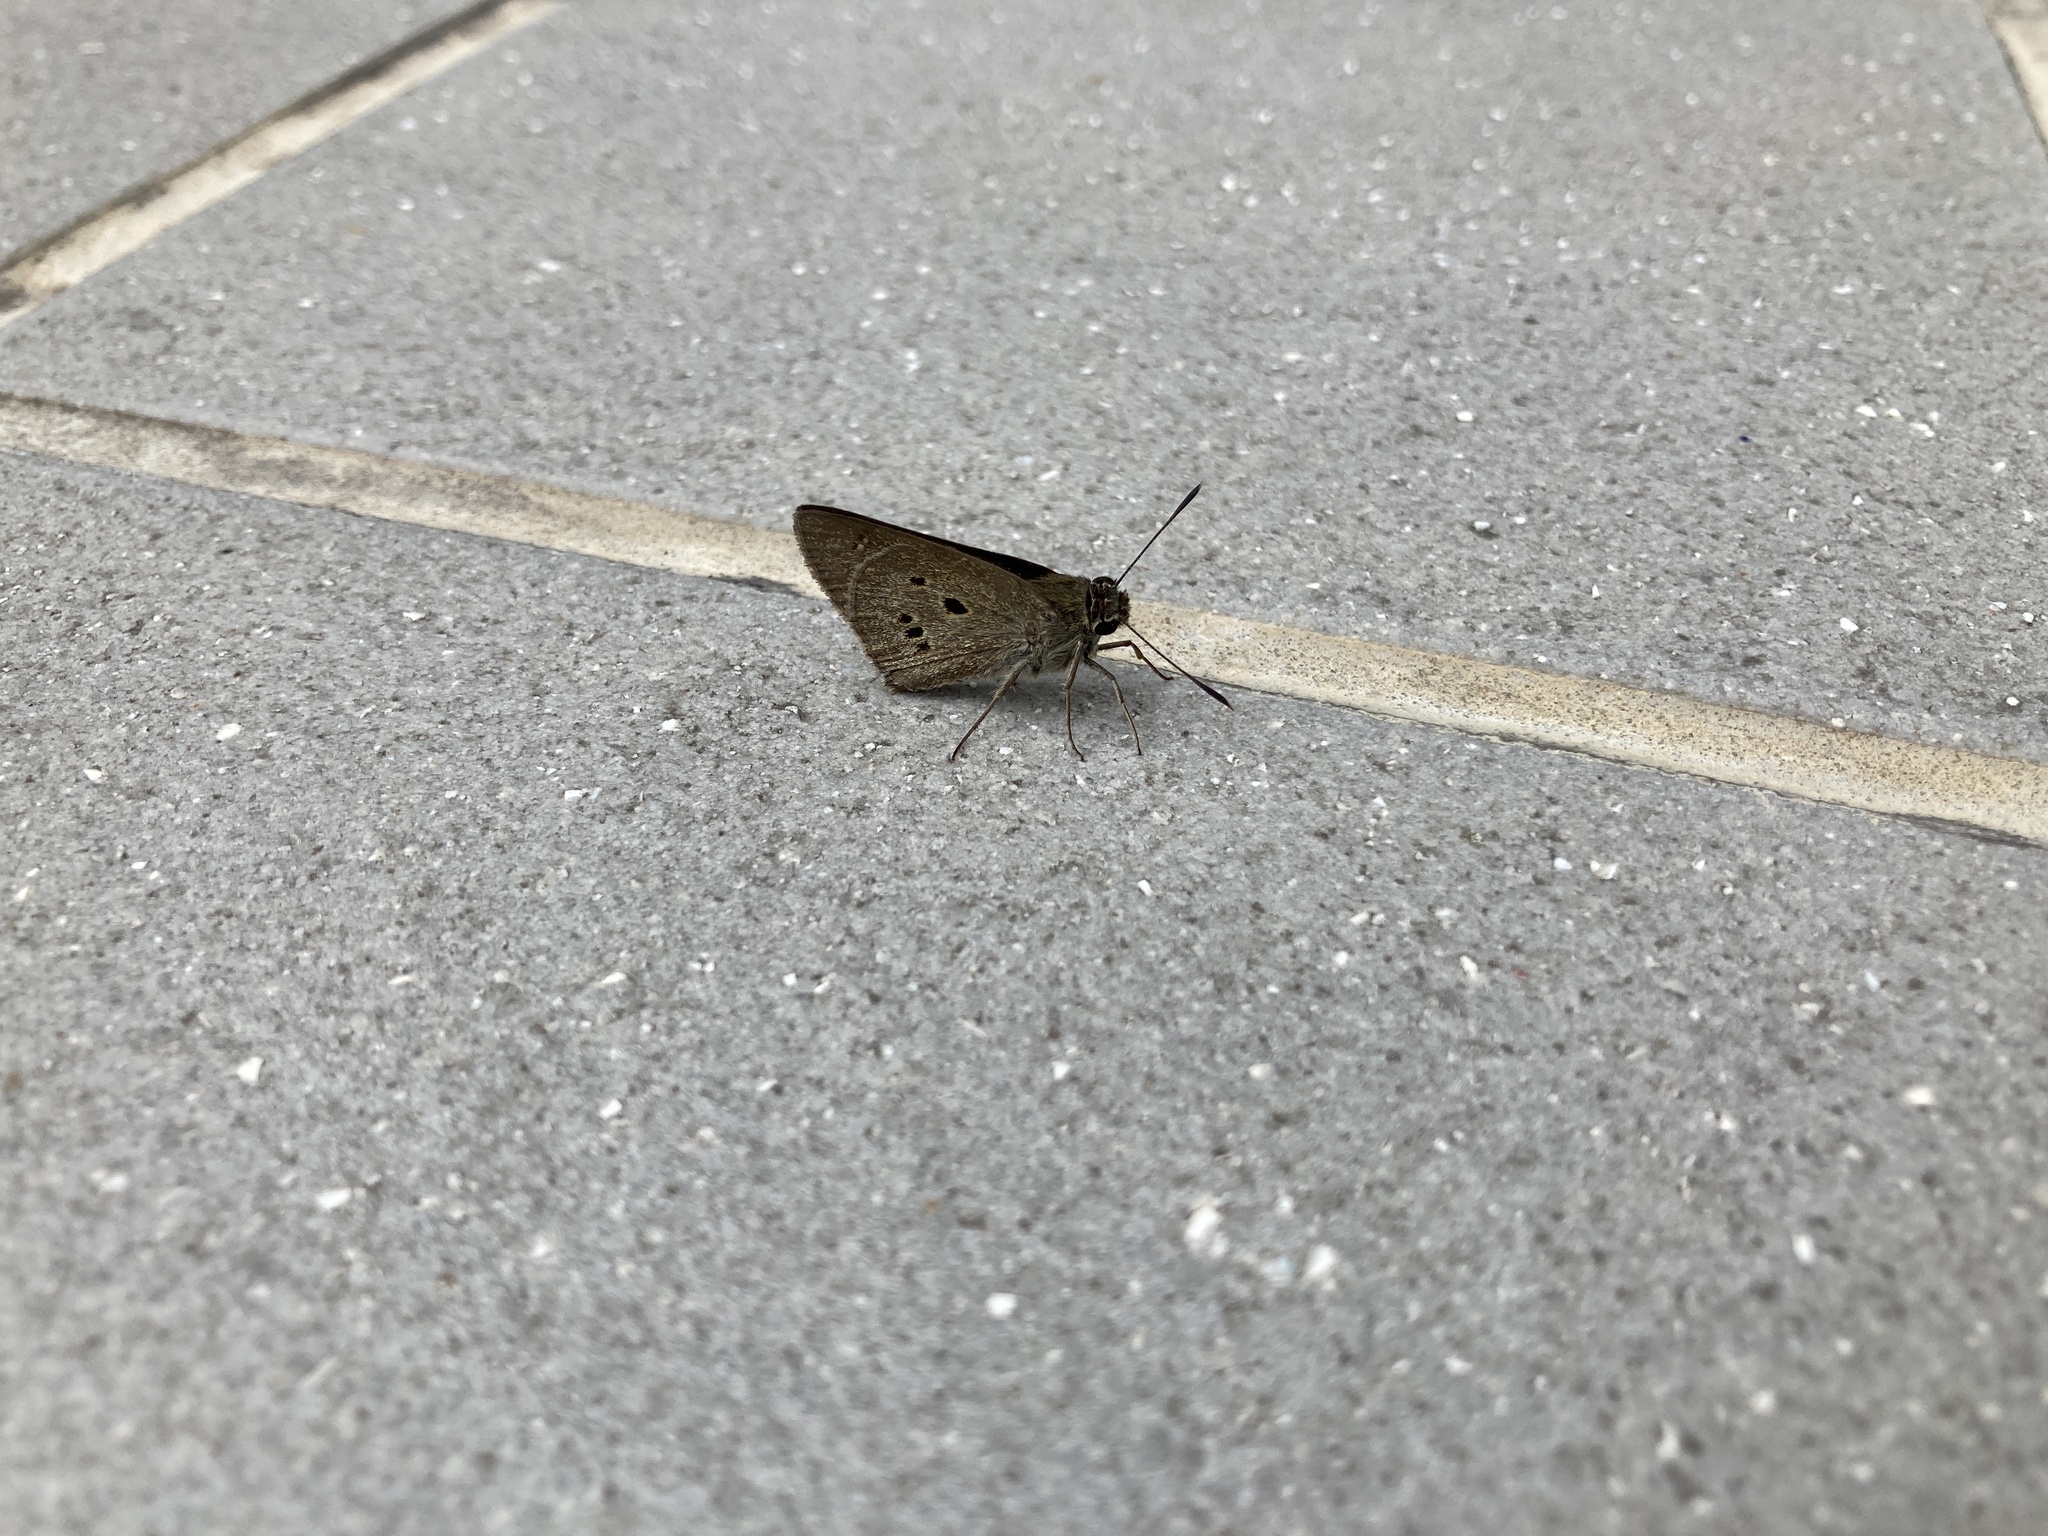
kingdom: Animalia
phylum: Arthropoda
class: Insecta
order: Lepidoptera
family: Hesperiidae
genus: Suastus
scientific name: Suastus gremius
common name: Indian palm bob
